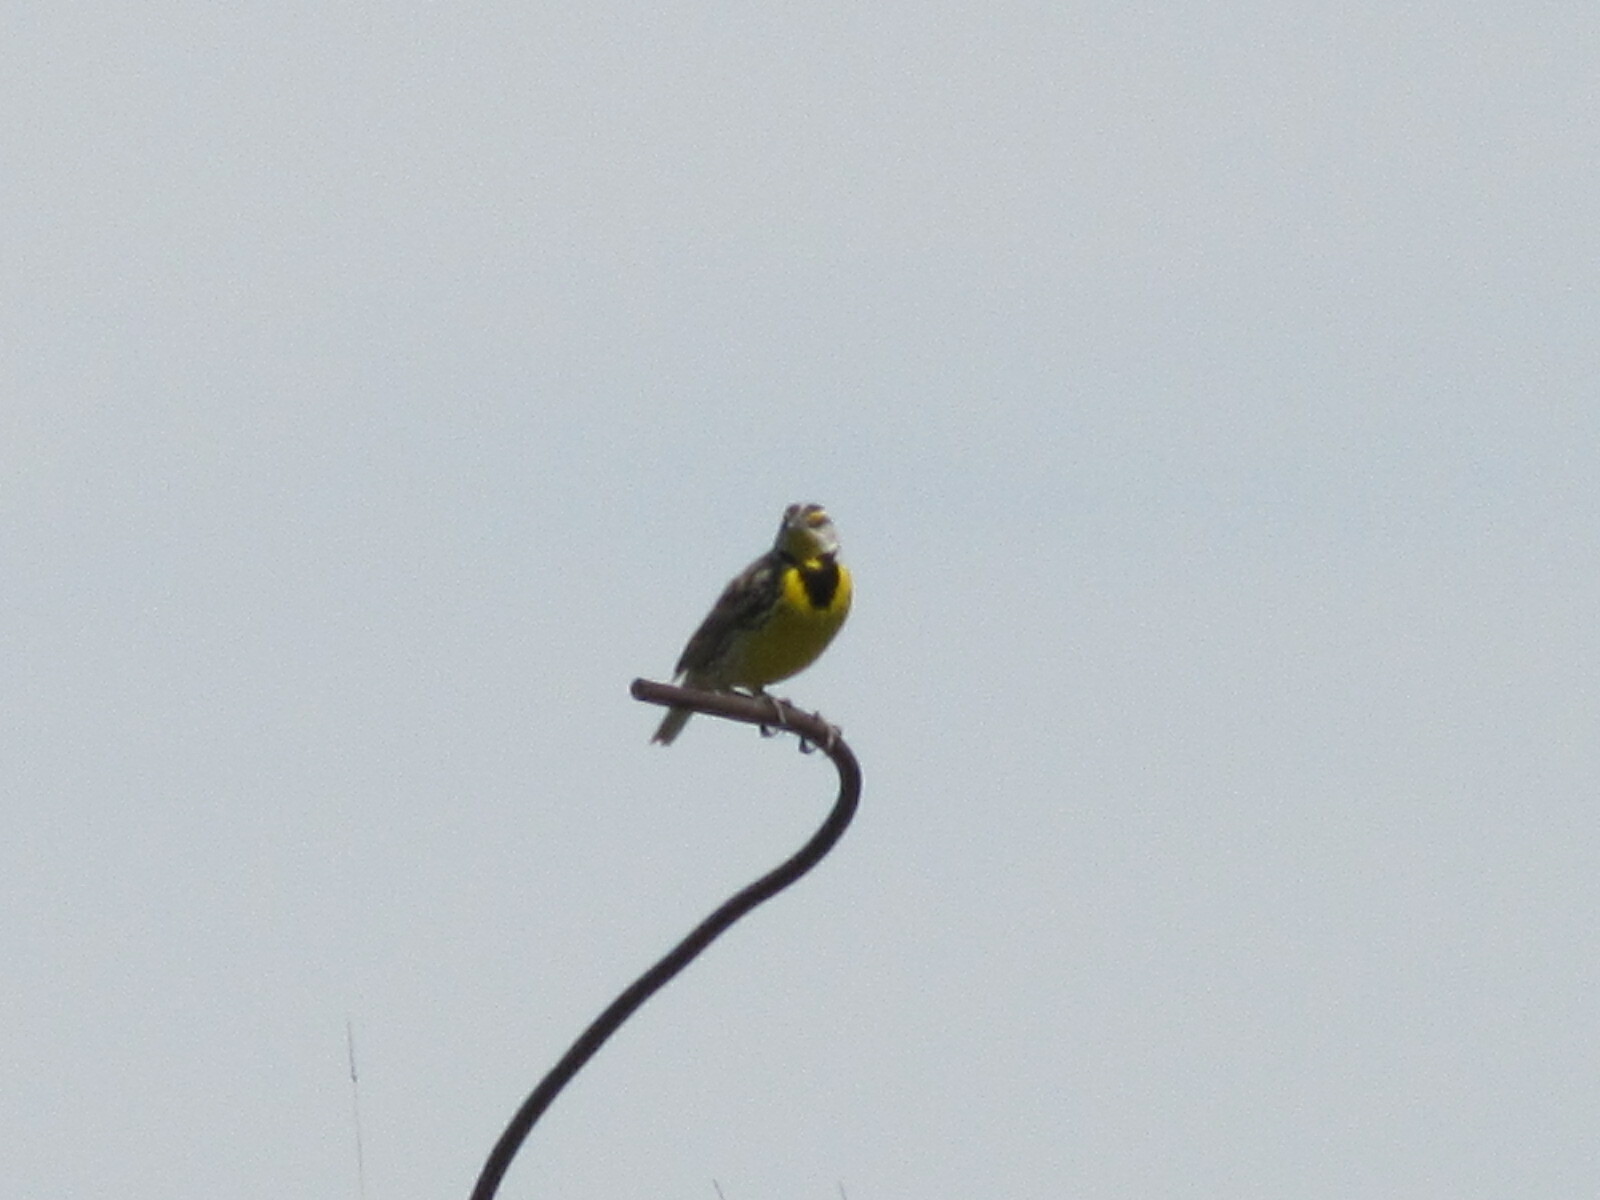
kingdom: Animalia
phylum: Chordata
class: Aves
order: Passeriformes
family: Icteridae
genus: Sturnella
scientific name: Sturnella magna
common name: Eastern meadowlark
